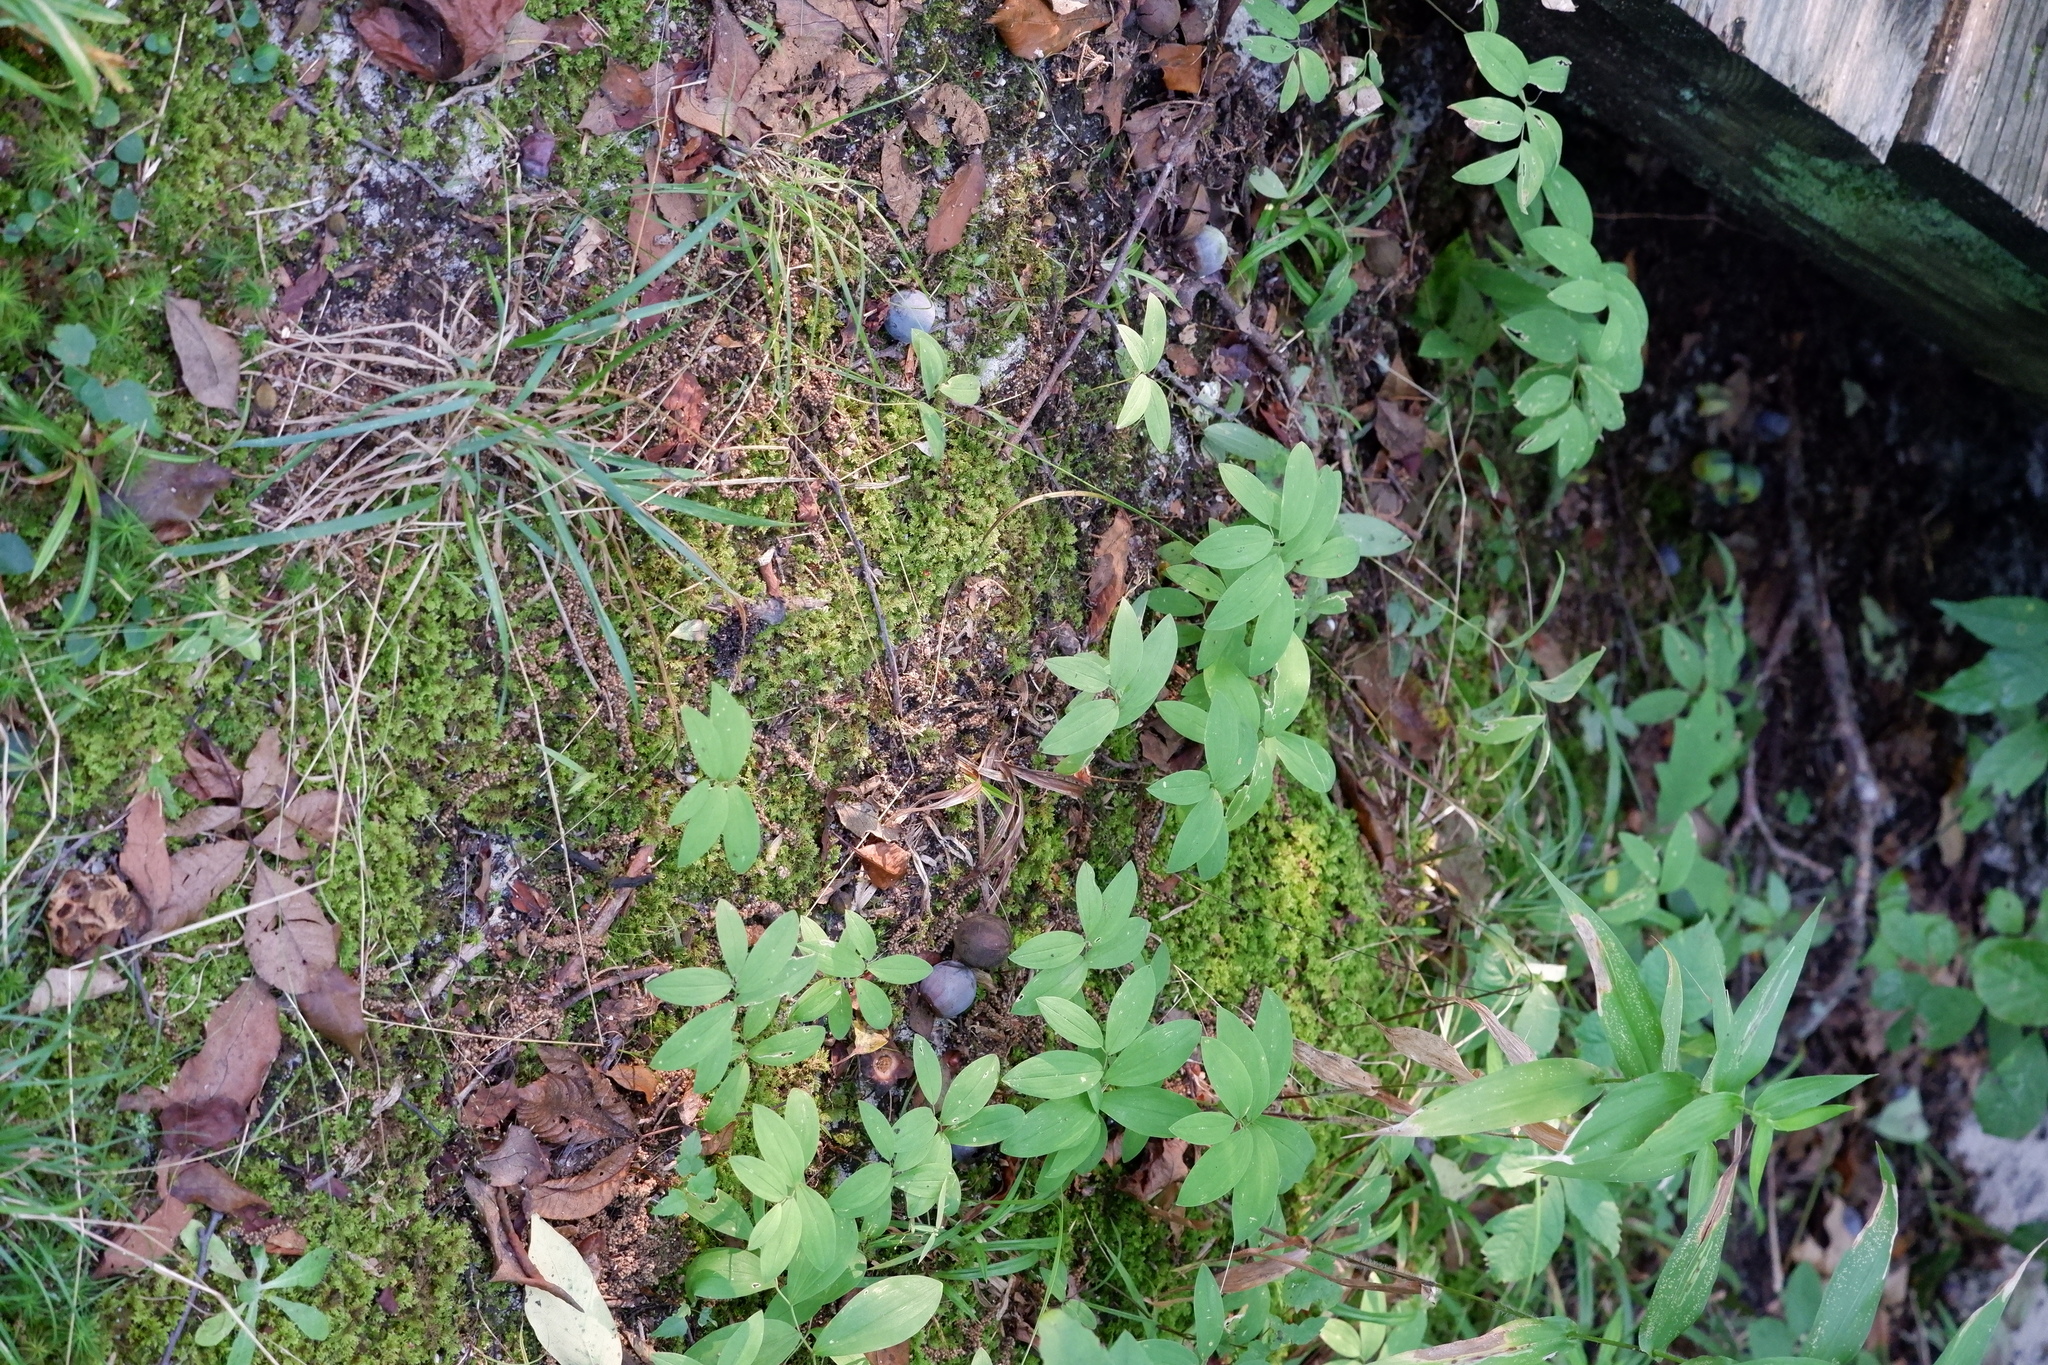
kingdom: Plantae
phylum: Tracheophyta
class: Liliopsida
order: Liliales
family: Colchicaceae
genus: Uvularia
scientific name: Uvularia sessilifolia
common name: Straw-lily
